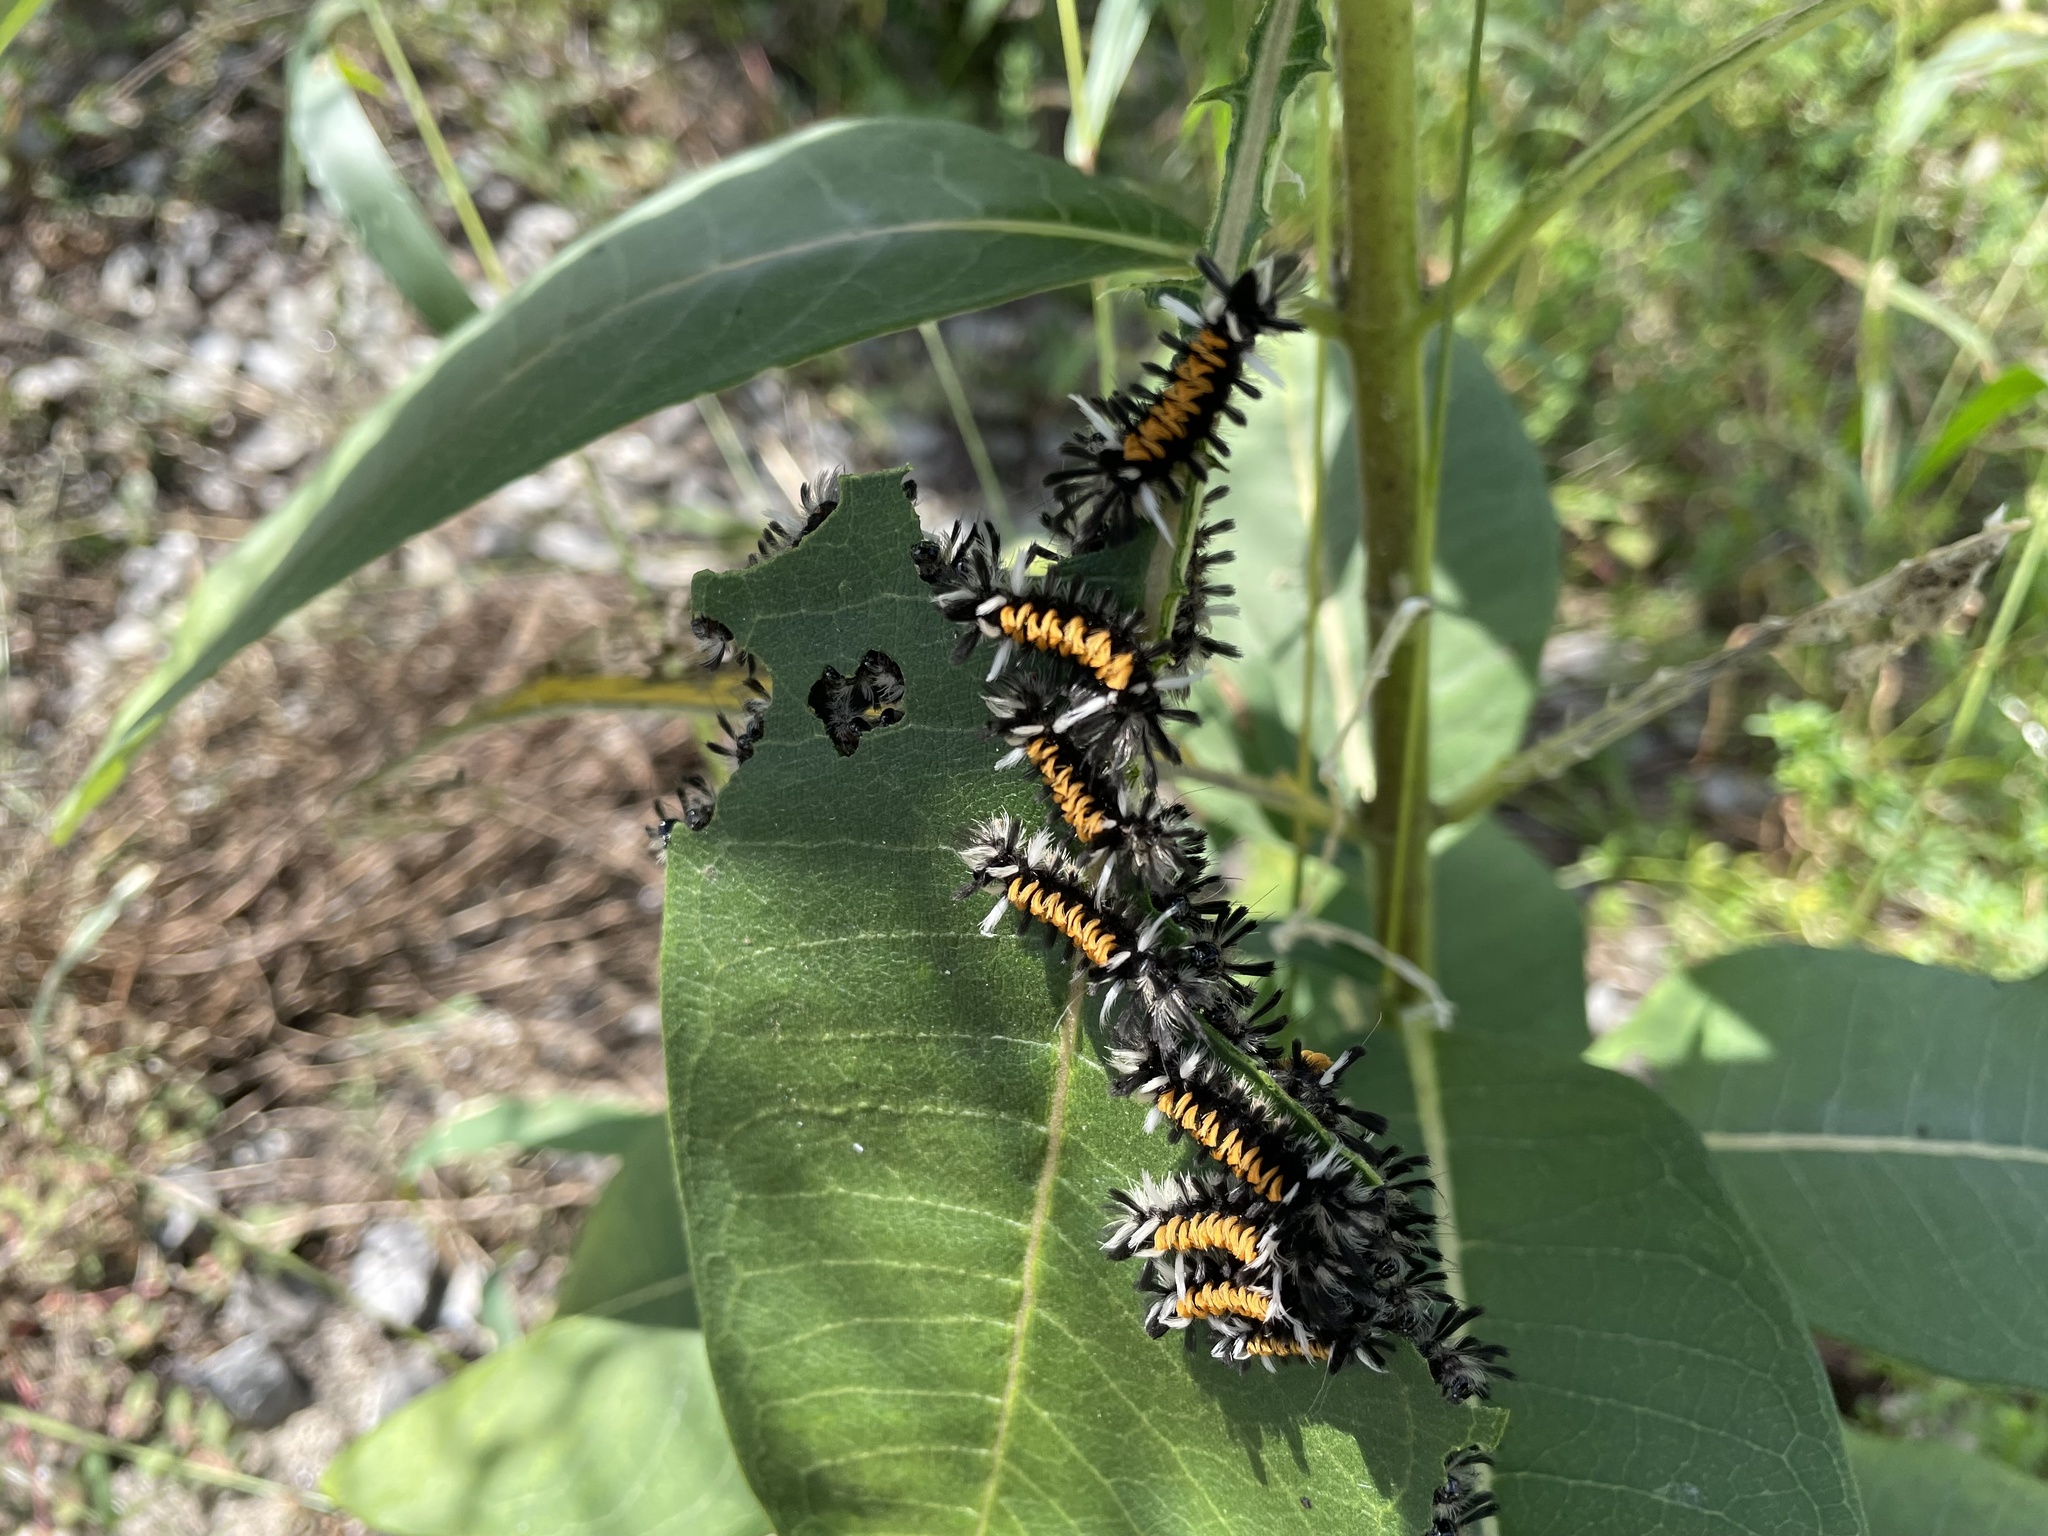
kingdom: Animalia
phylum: Arthropoda
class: Insecta
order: Lepidoptera
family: Erebidae
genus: Euchaetes
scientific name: Euchaetes egle
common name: Milkweed tussock moth
